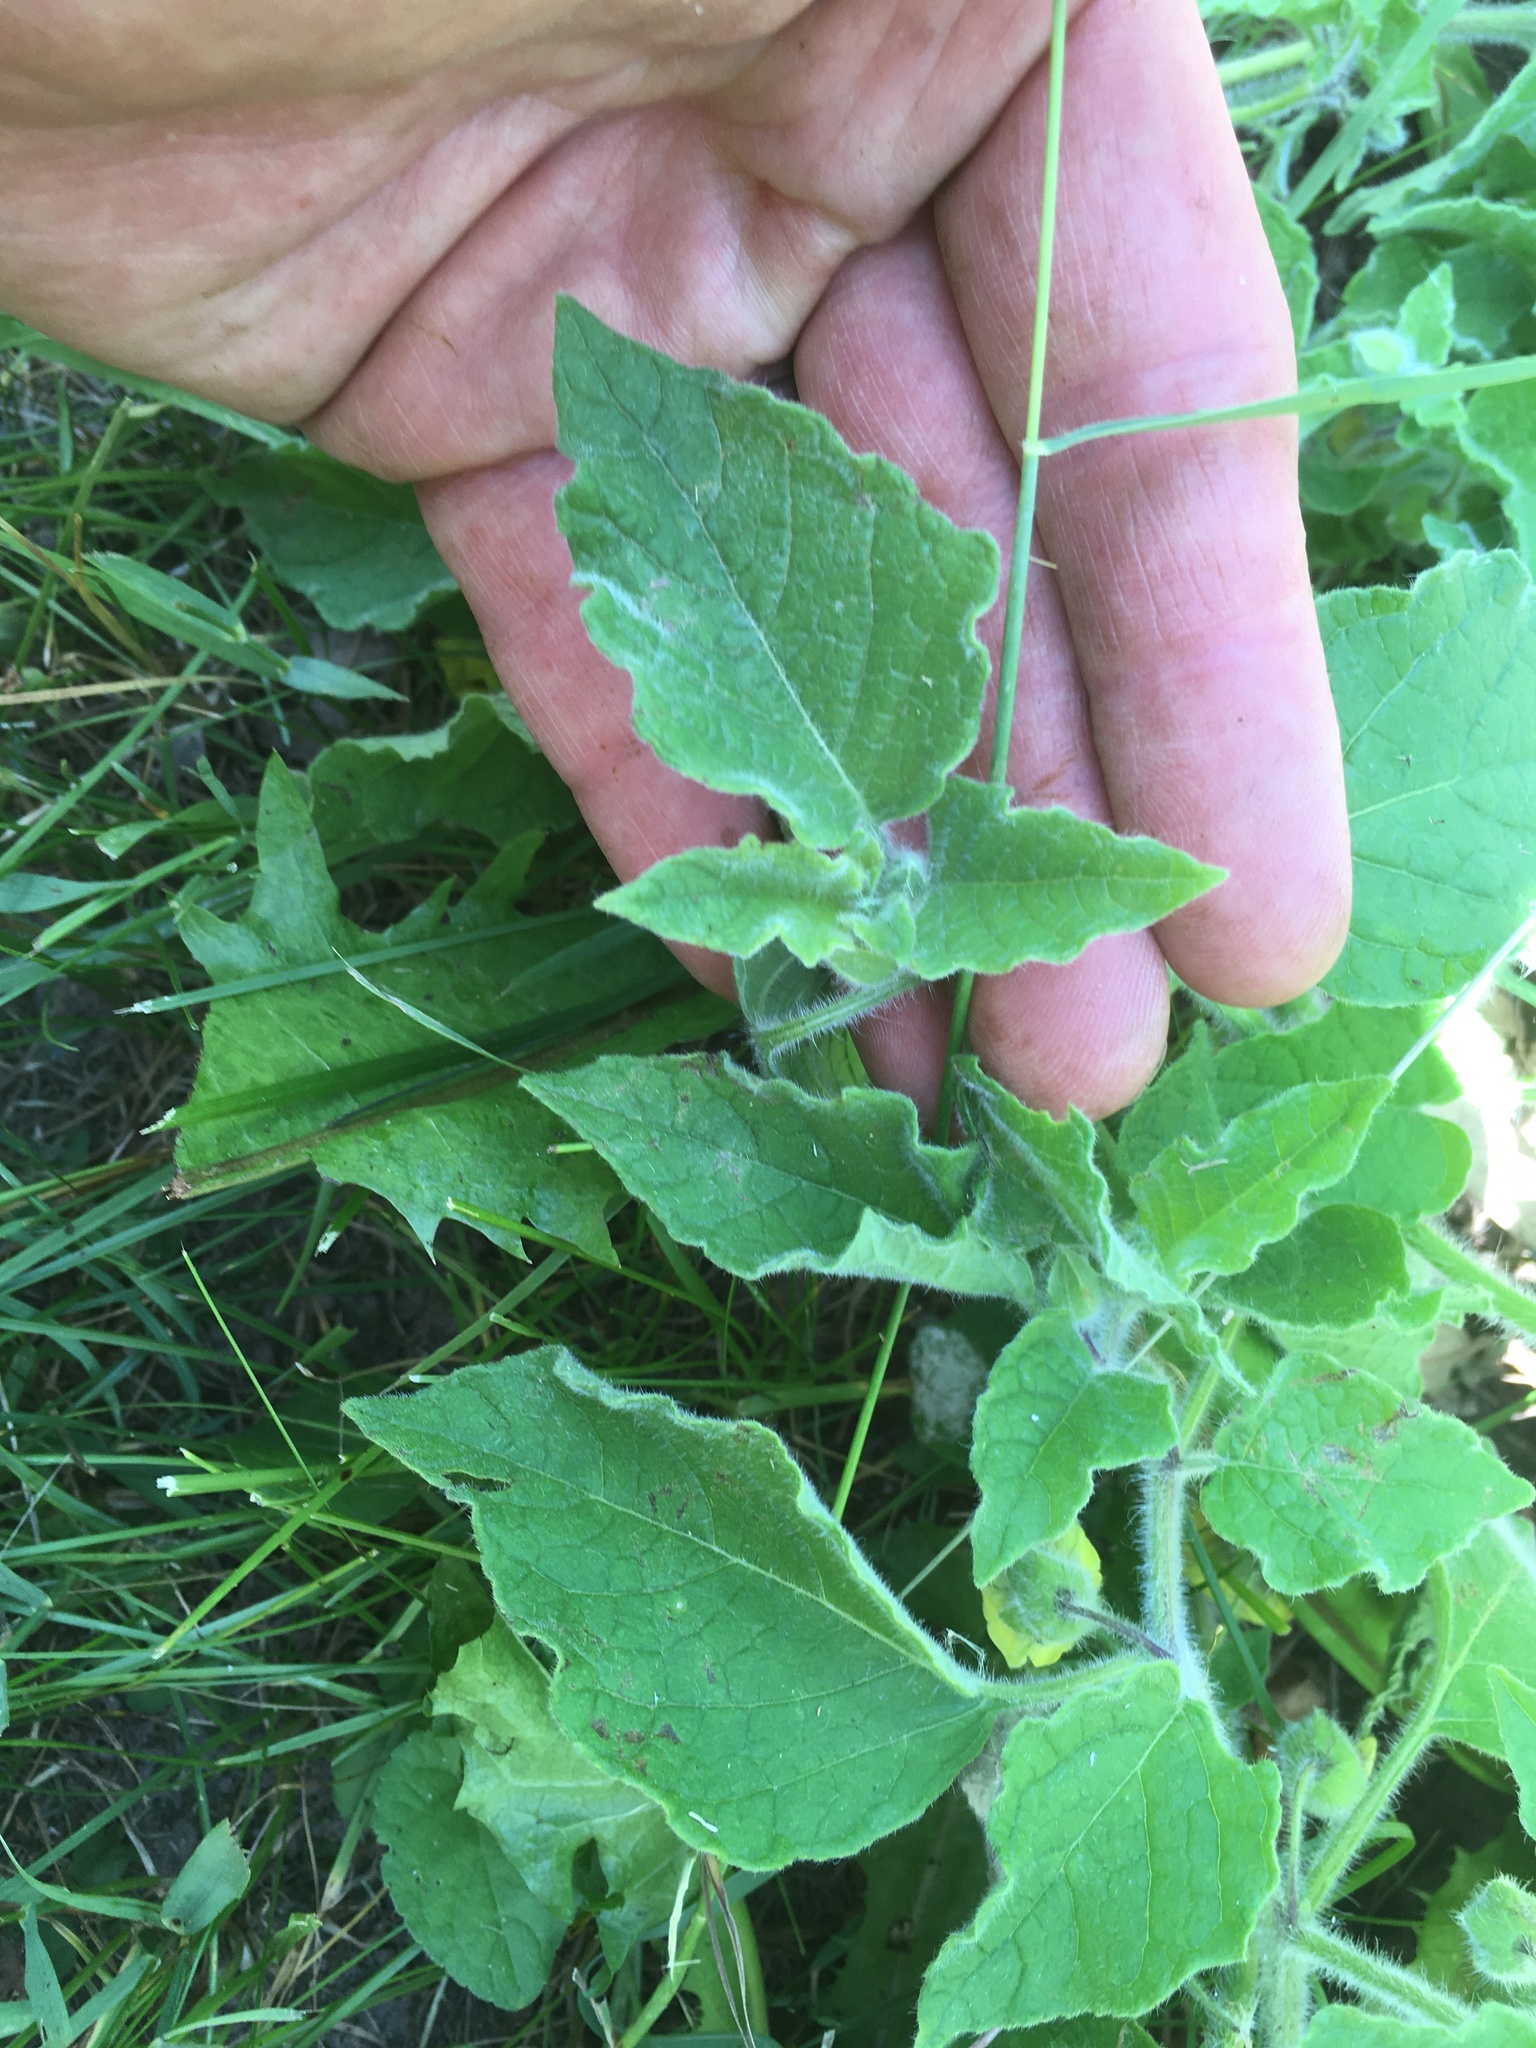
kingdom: Plantae
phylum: Tracheophyta
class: Magnoliopsida
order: Solanales
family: Solanaceae
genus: Physalis
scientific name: Physalis heterophylla
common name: Clammy ground-cherry
